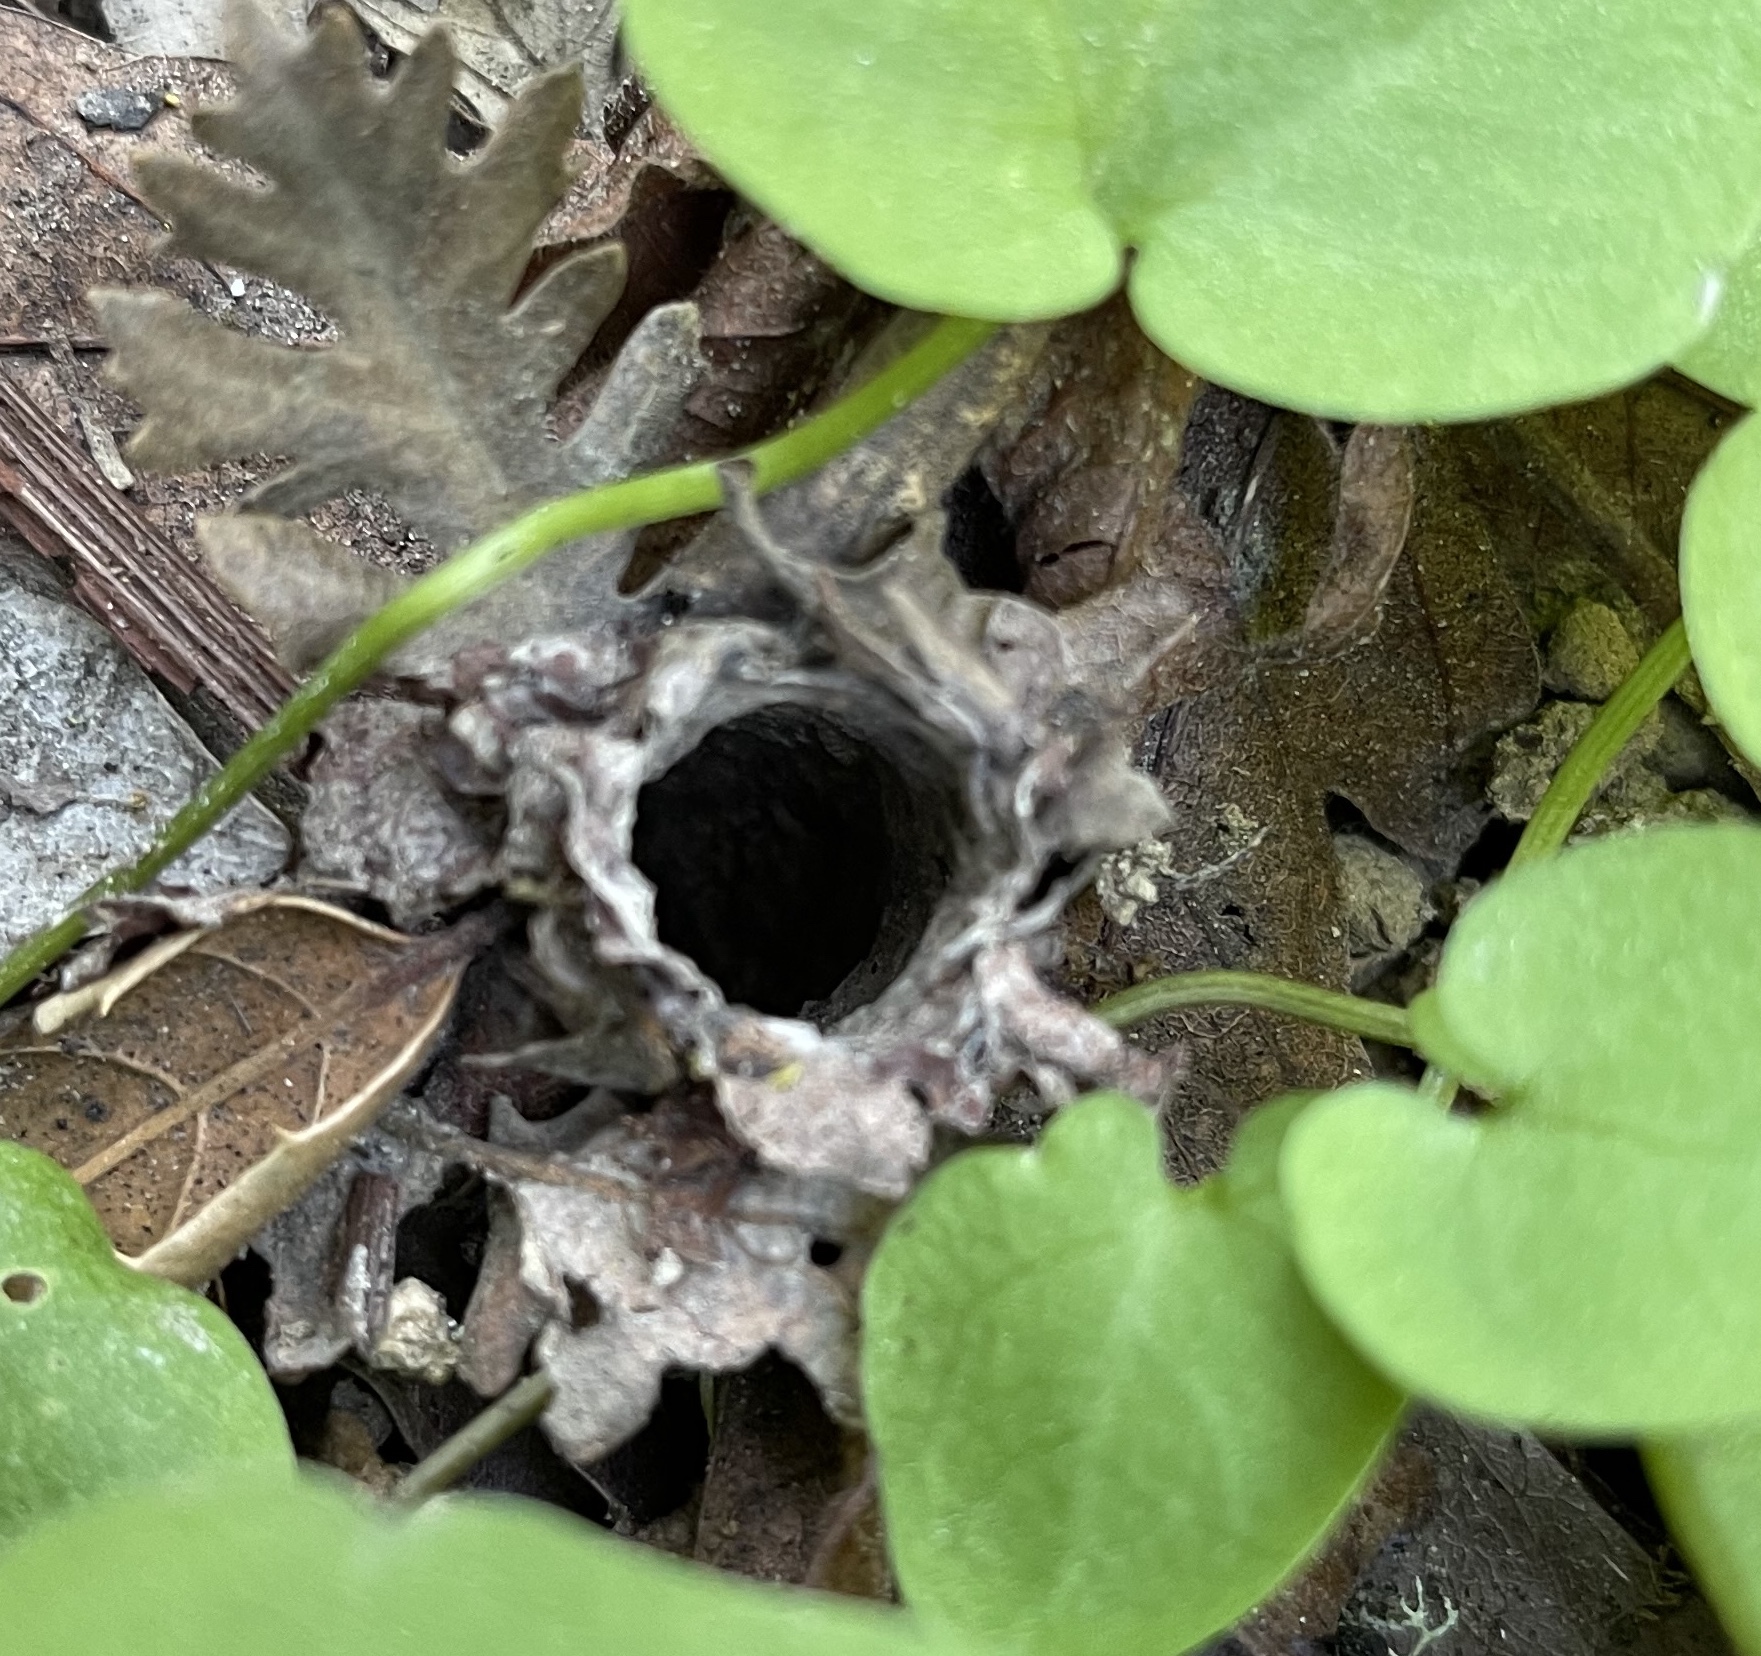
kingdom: Animalia
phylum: Arthropoda
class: Arachnida
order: Araneae
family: Antrodiaetidae
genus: Atypoides
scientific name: Atypoides riversi
